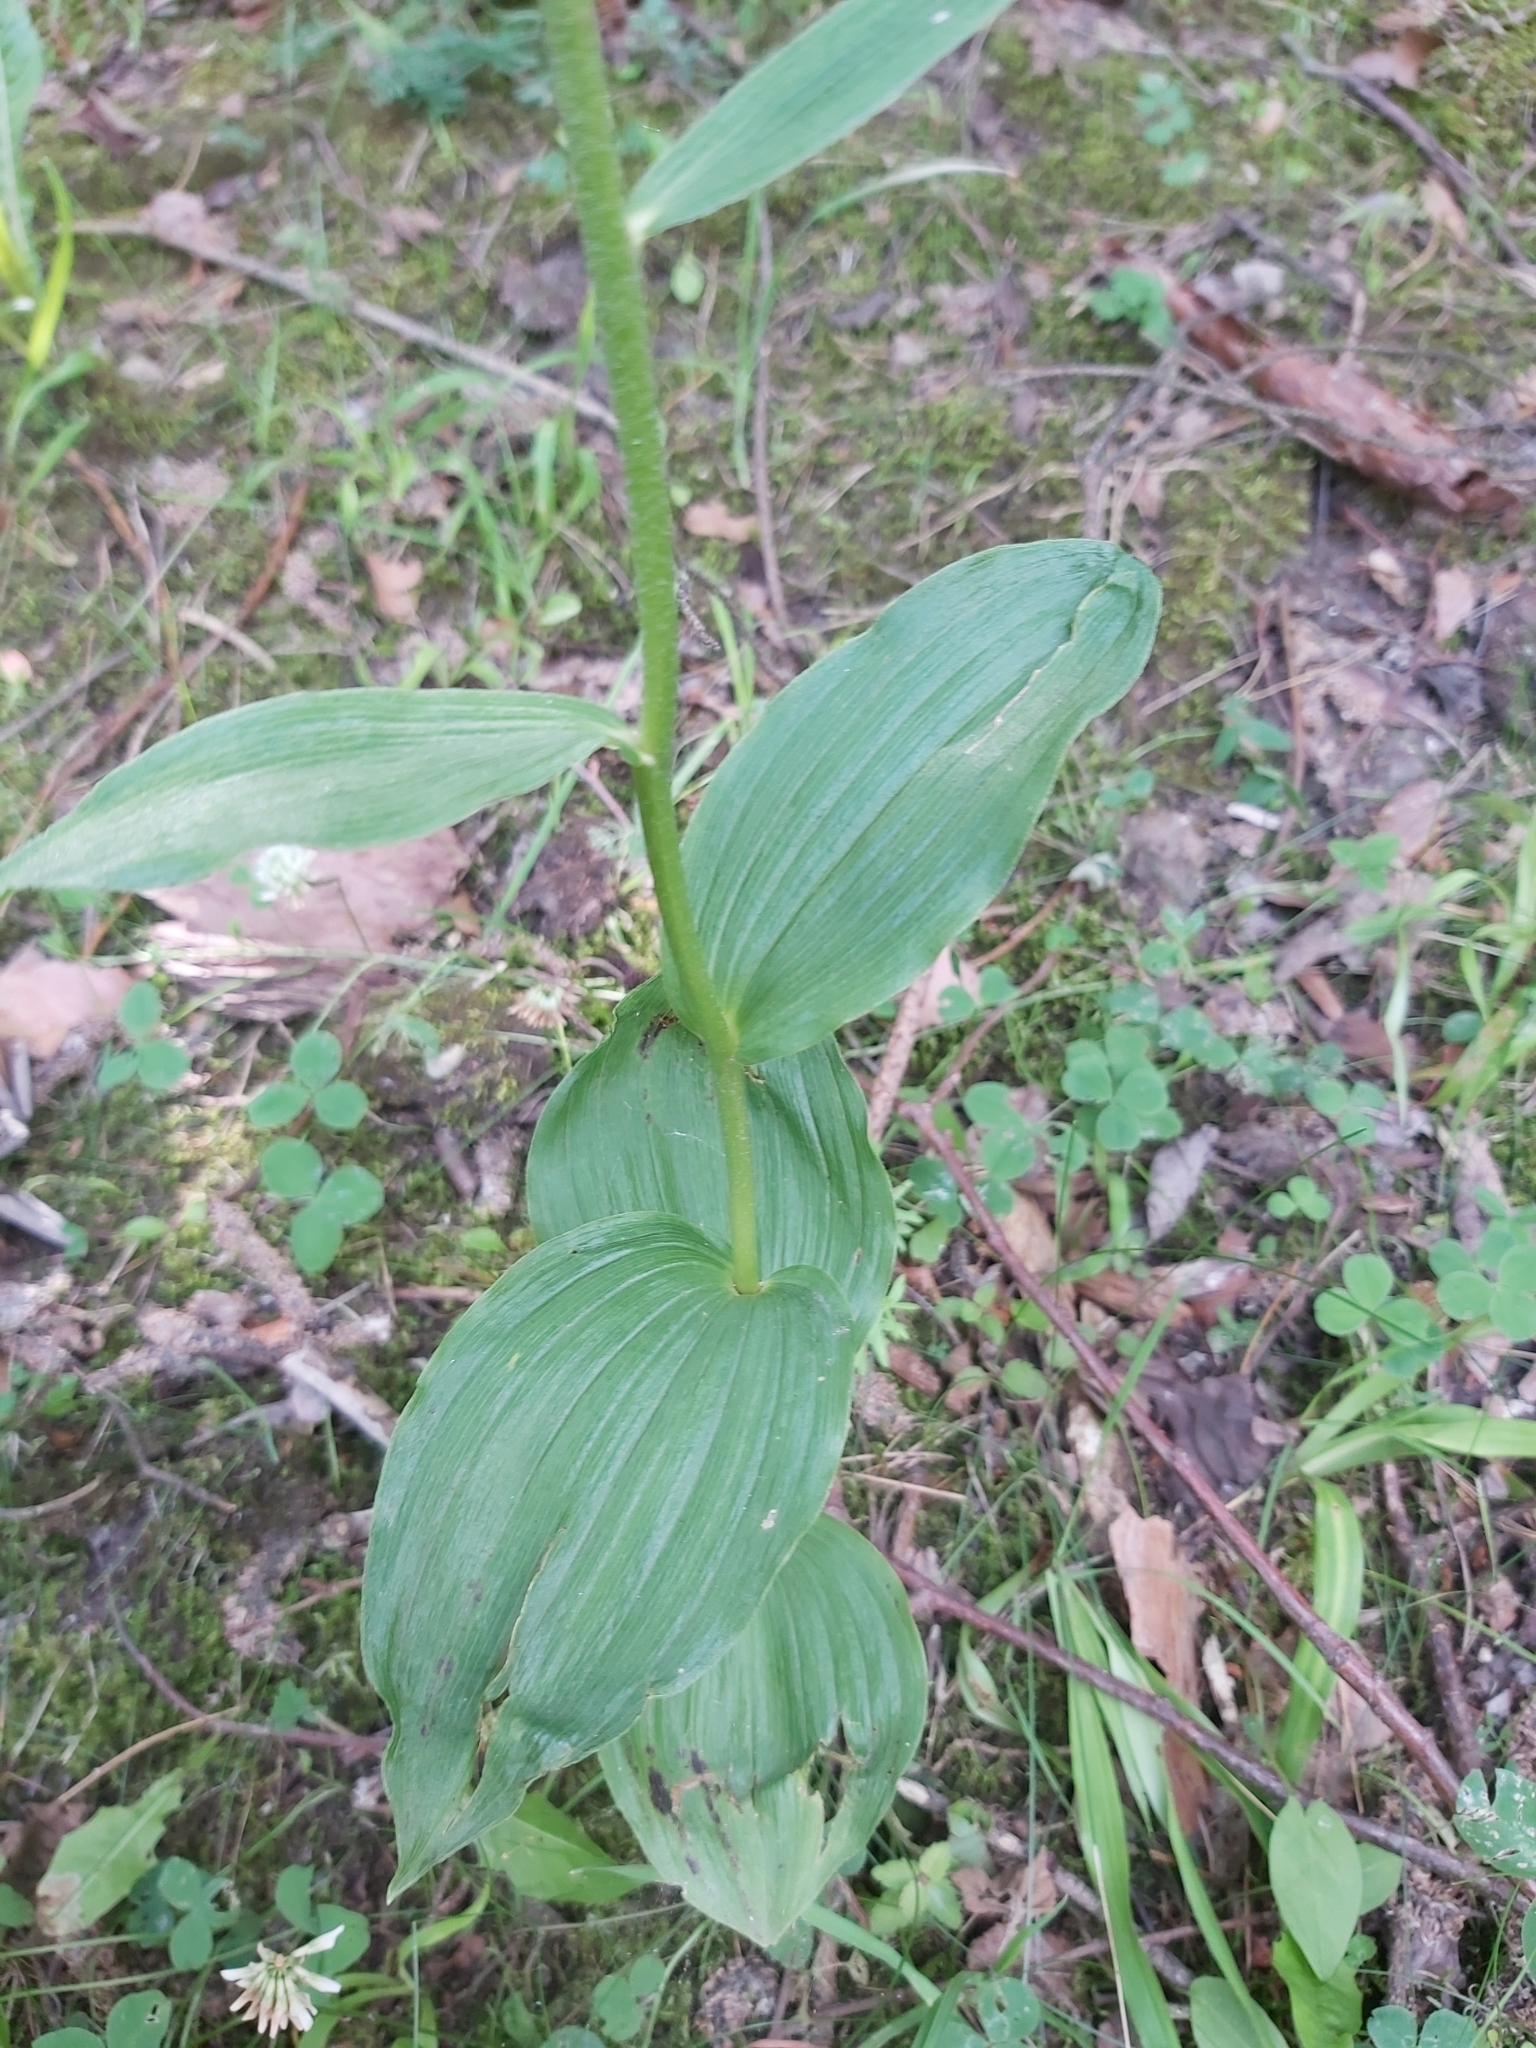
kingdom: Plantae
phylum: Tracheophyta
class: Liliopsida
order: Asparagales
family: Orchidaceae
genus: Epipactis
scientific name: Epipactis helleborine
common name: Broad-leaved helleborine
